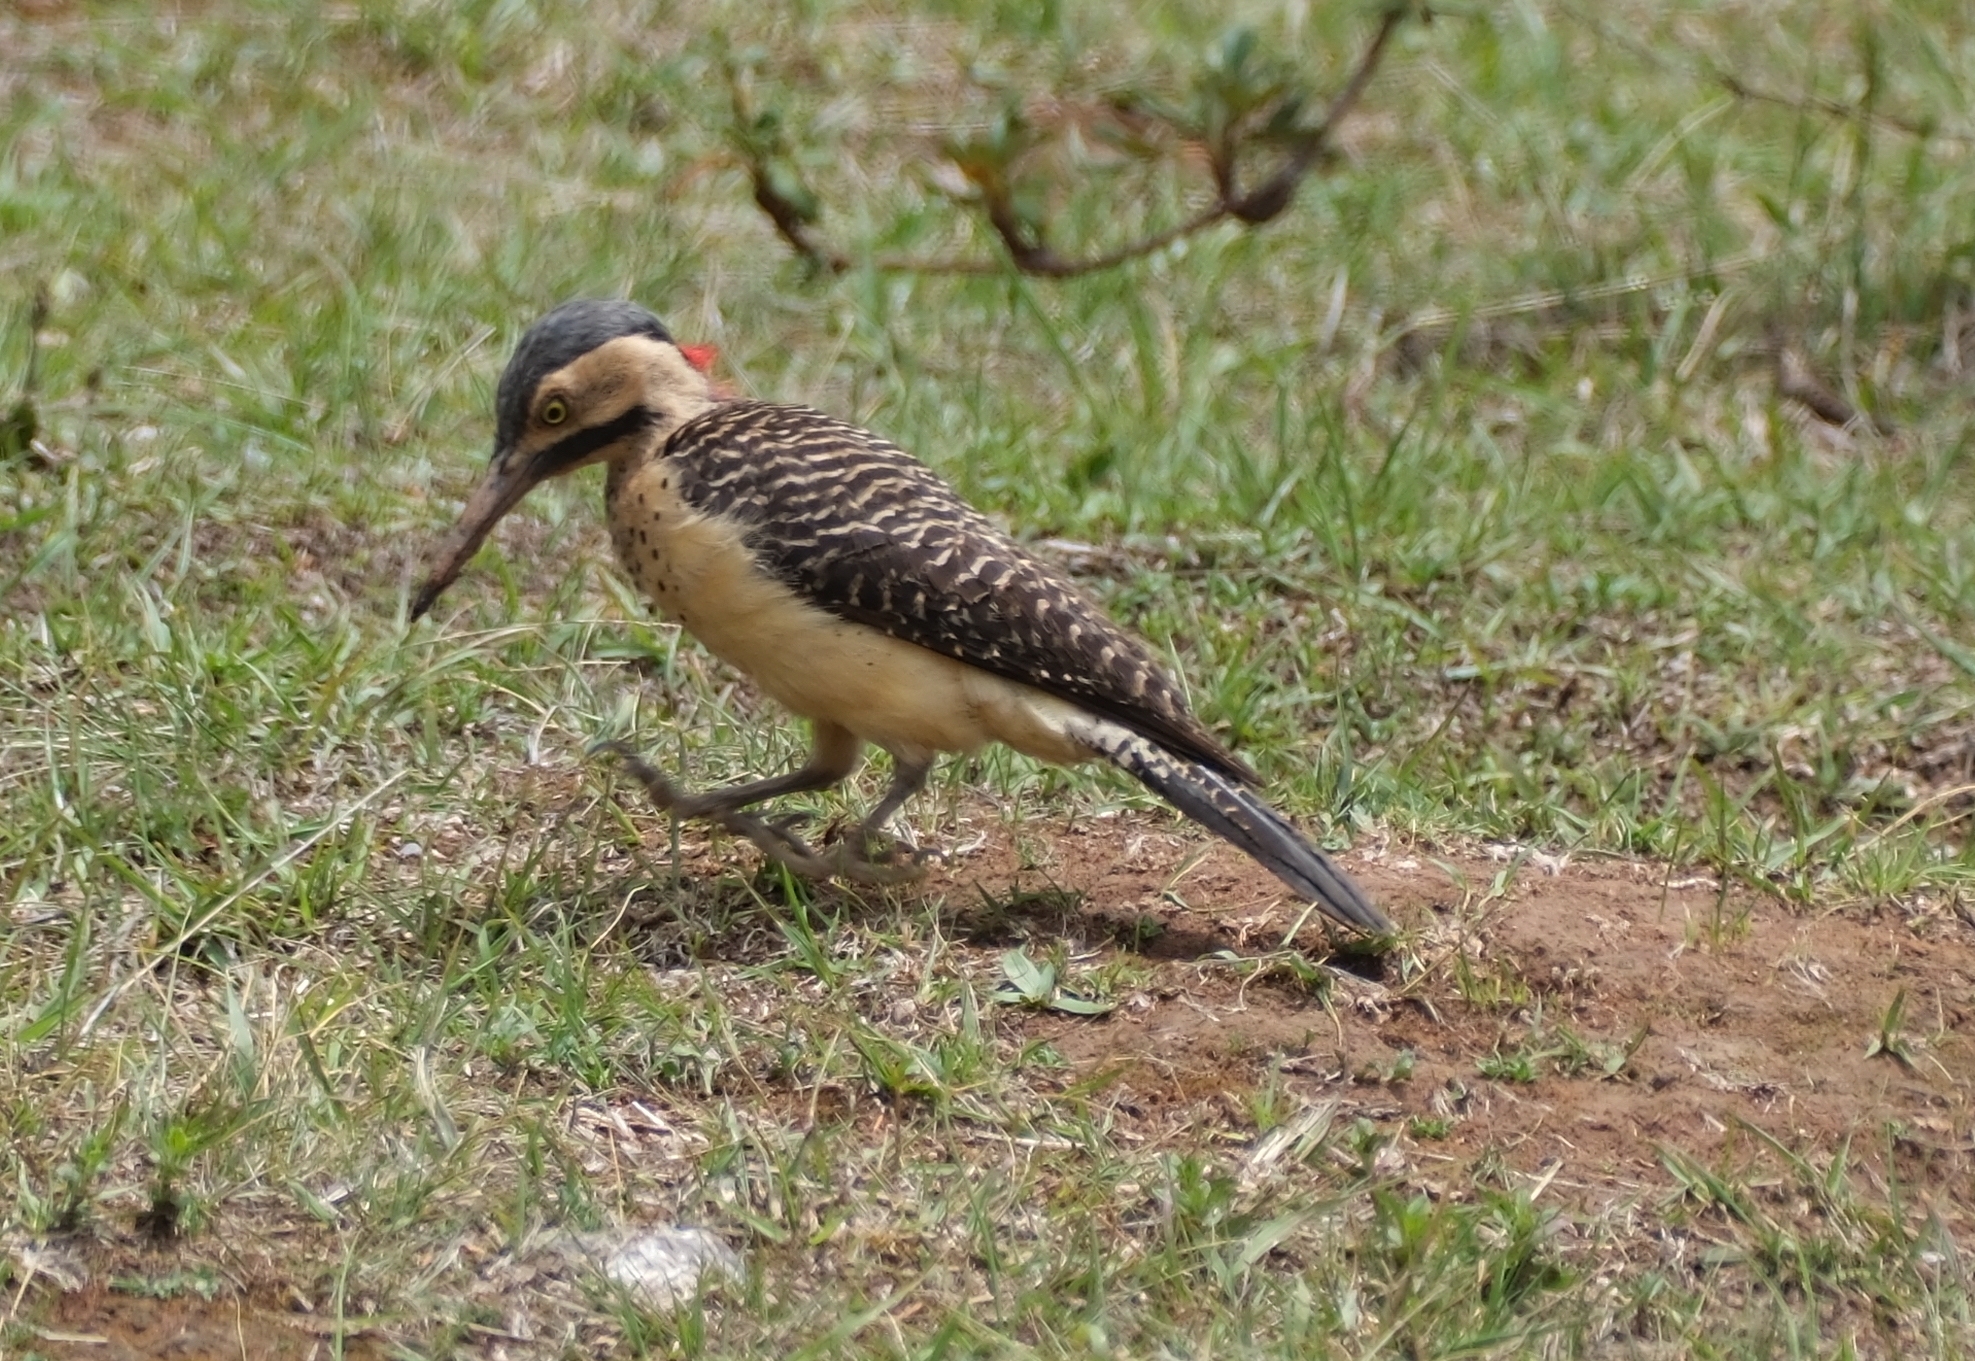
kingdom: Animalia
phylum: Chordata
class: Aves
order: Piciformes
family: Picidae
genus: Colaptes
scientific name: Colaptes rupicola
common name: Andean flicker
